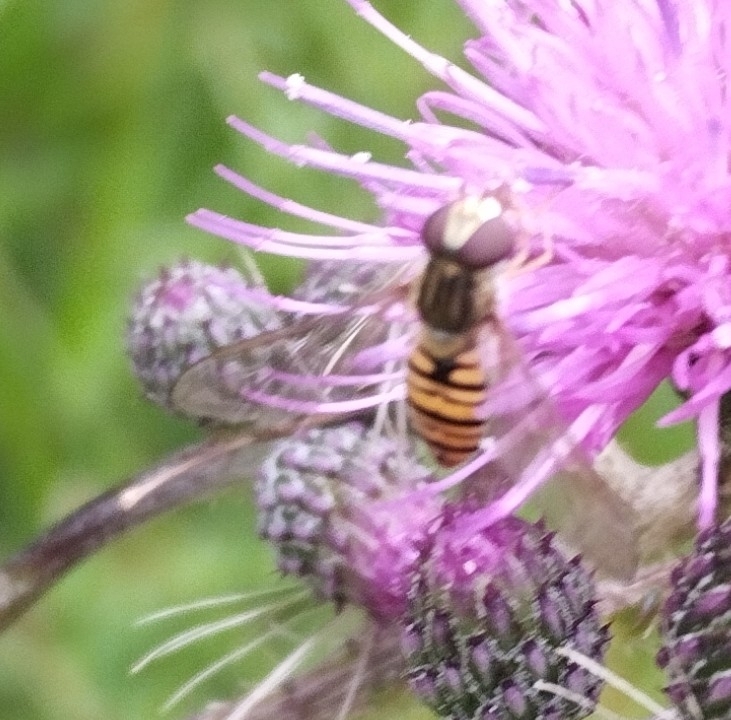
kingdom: Animalia
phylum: Arthropoda
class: Insecta
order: Diptera
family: Syrphidae
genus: Episyrphus
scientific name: Episyrphus balteatus
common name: Marmalade hoverfly
